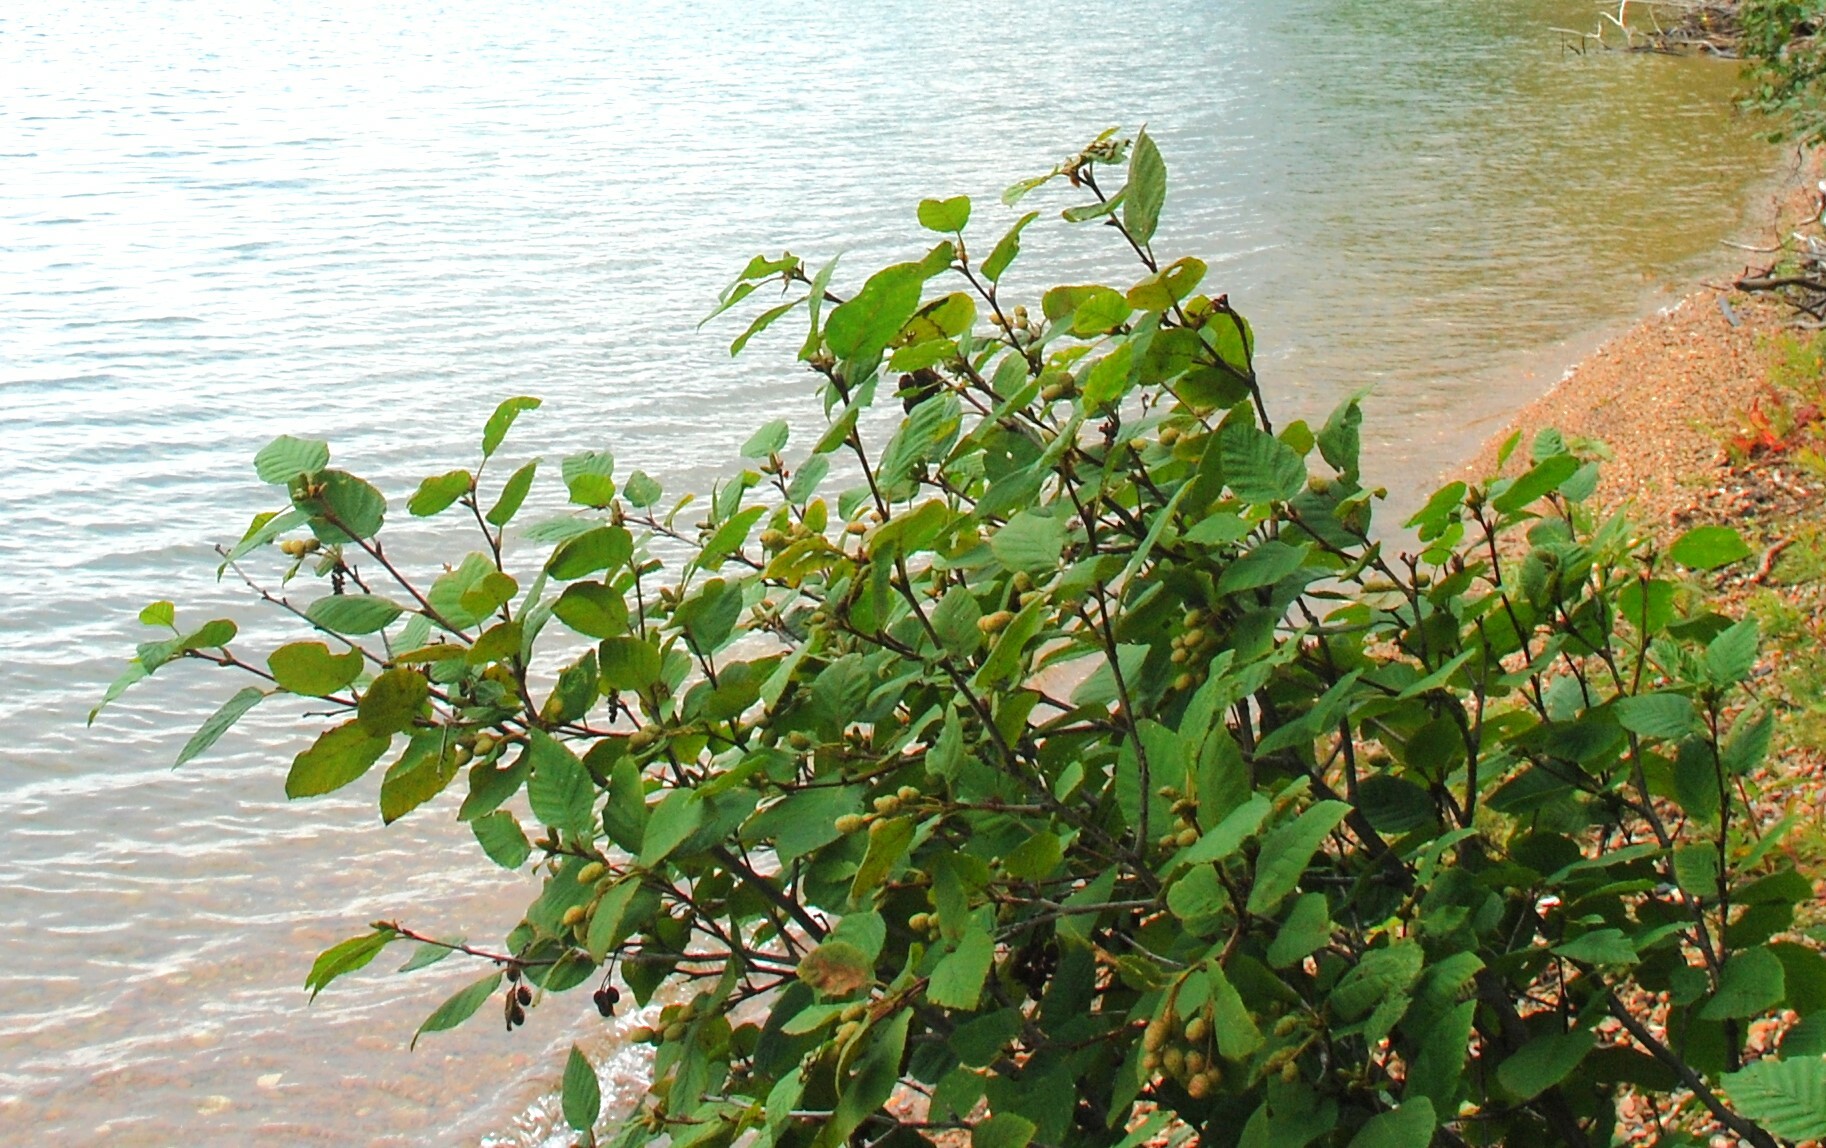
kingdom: Plantae
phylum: Tracheophyta
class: Magnoliopsida
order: Fagales
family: Betulaceae
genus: Alnus
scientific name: Alnus alnobetula
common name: Green alder
